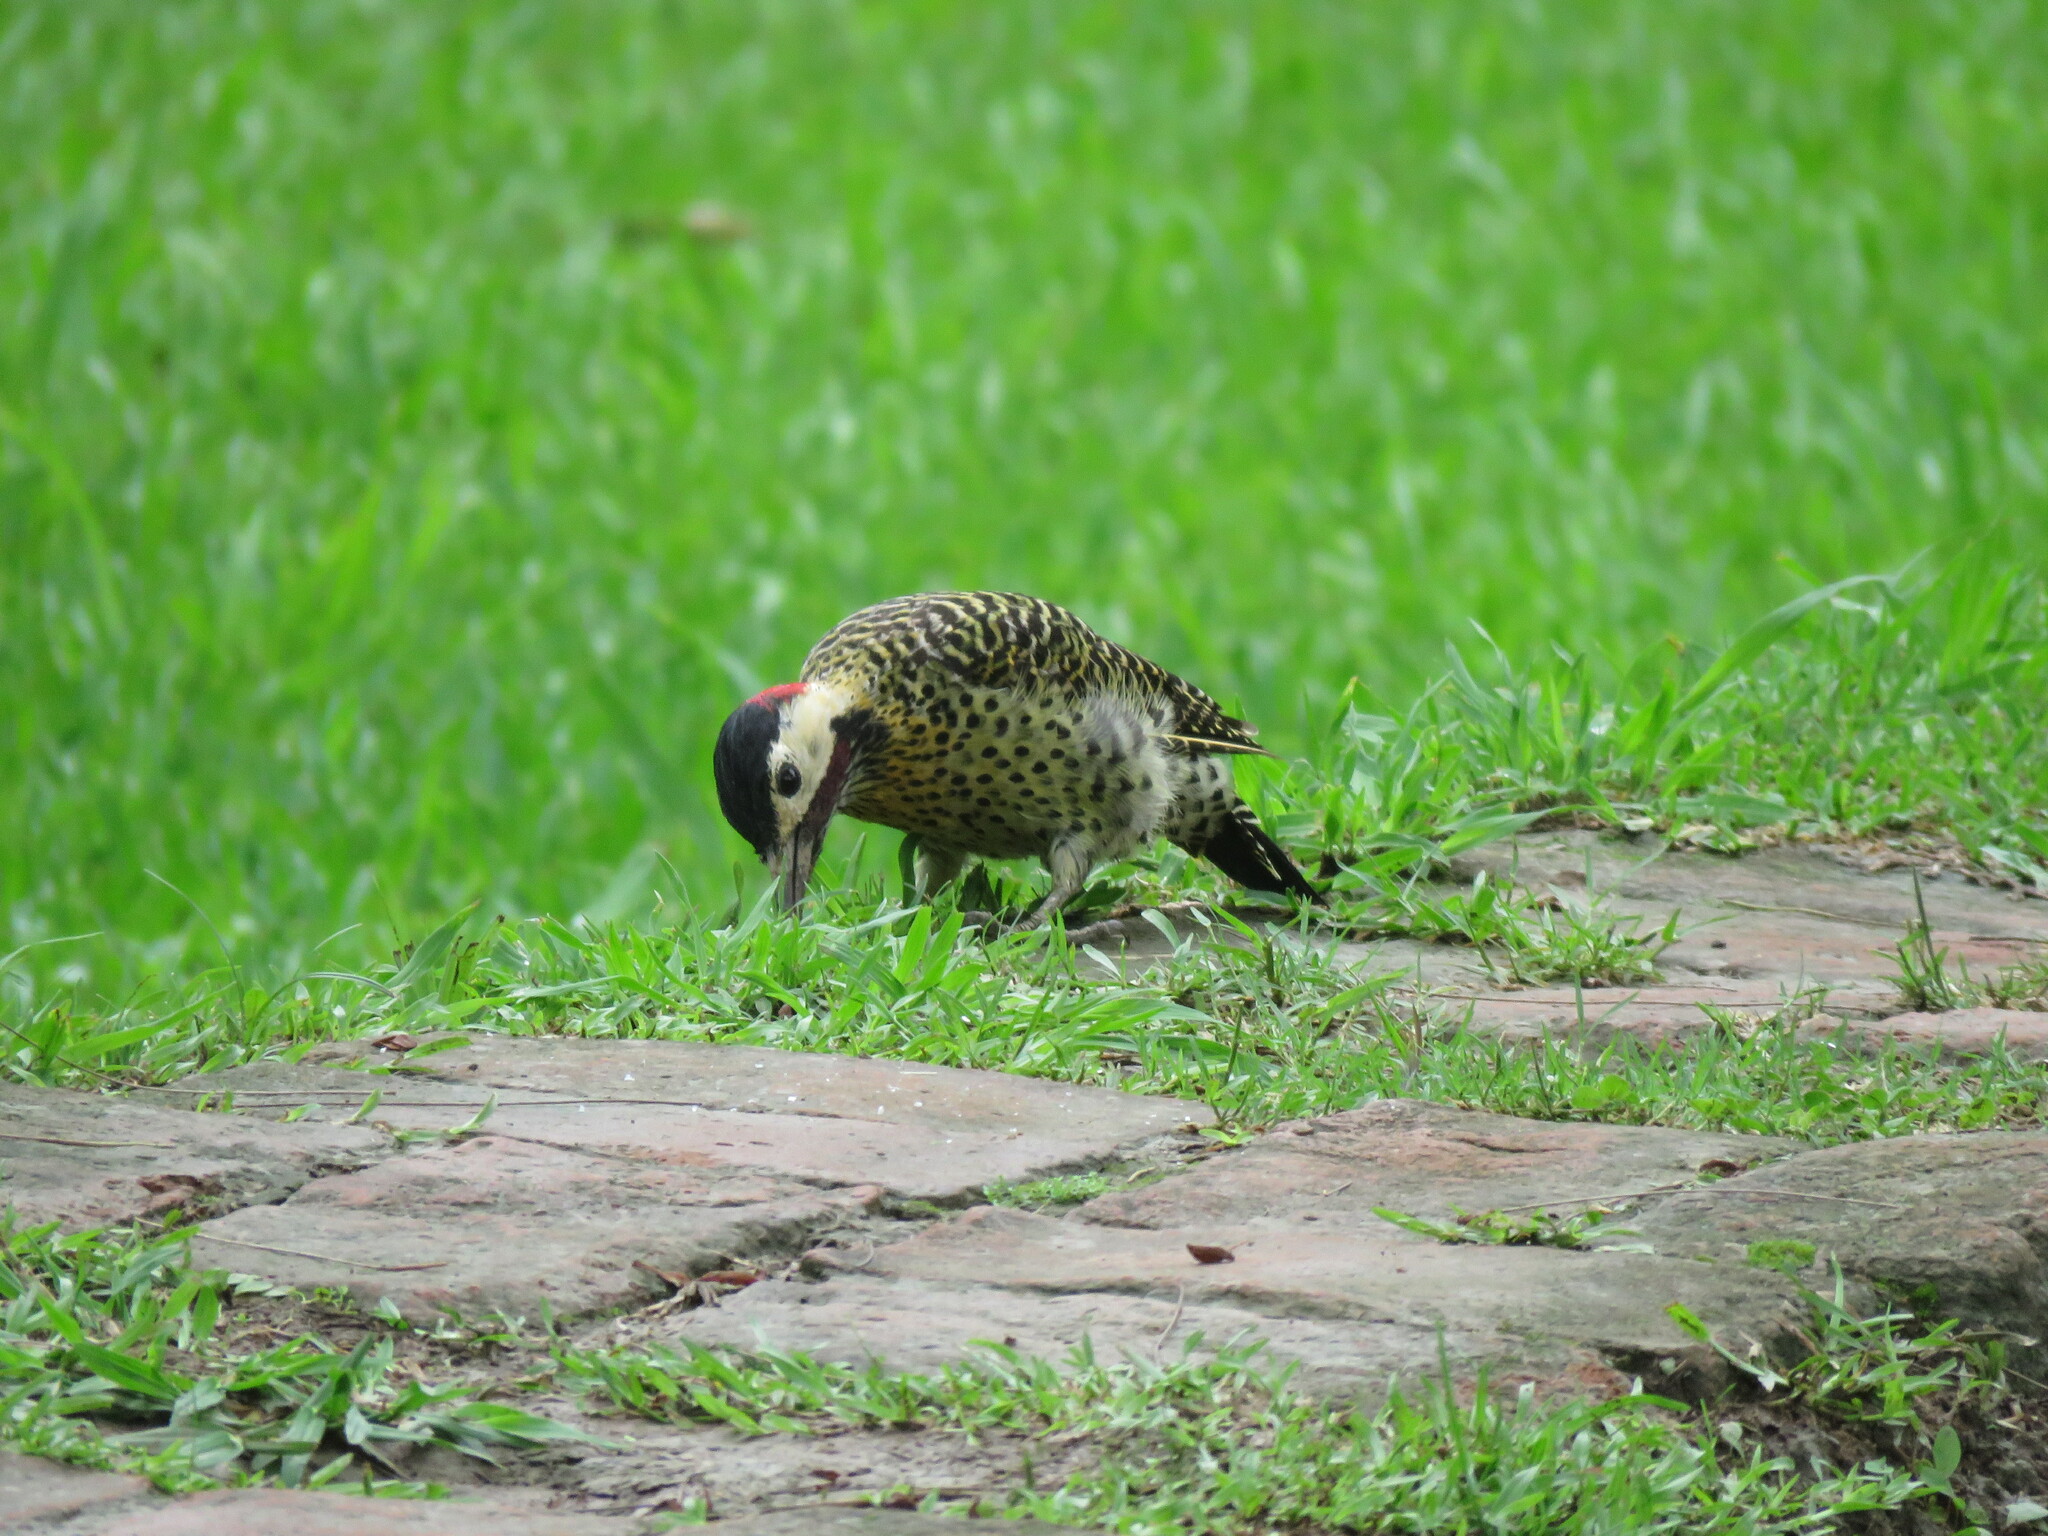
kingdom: Animalia
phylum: Chordata
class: Aves
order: Piciformes
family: Picidae
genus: Colaptes
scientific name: Colaptes melanochloros
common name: Green-barred woodpecker
